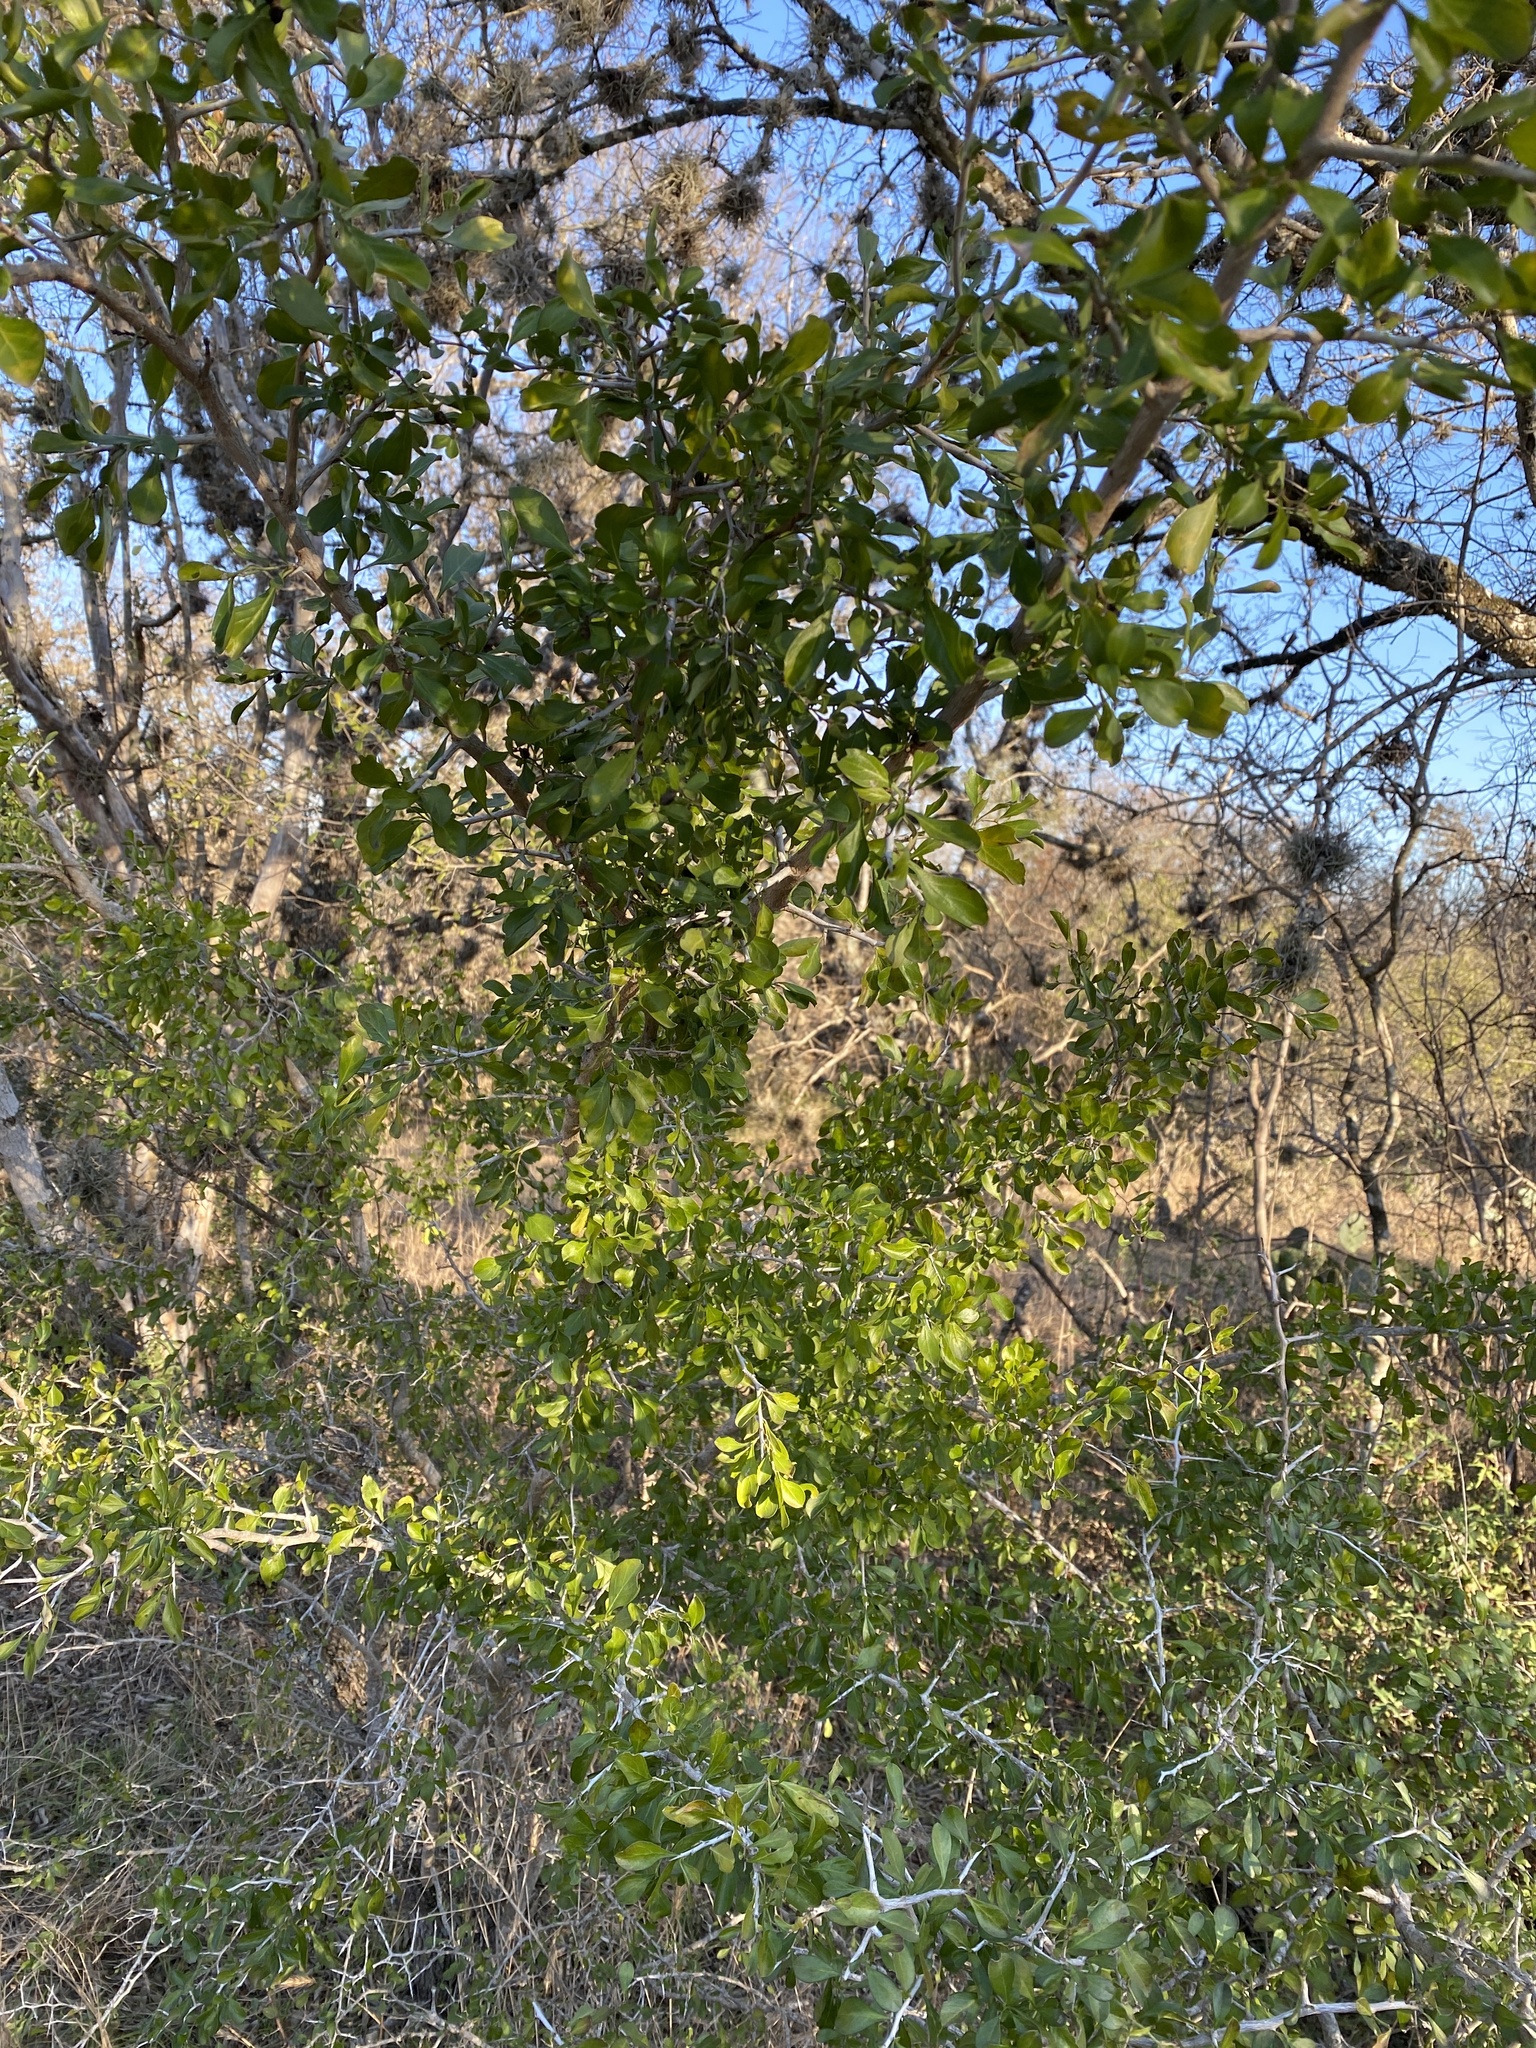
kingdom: Plantae
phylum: Tracheophyta
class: Magnoliopsida
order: Rosales
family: Rhamnaceae
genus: Condalia
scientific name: Condalia hookeri
